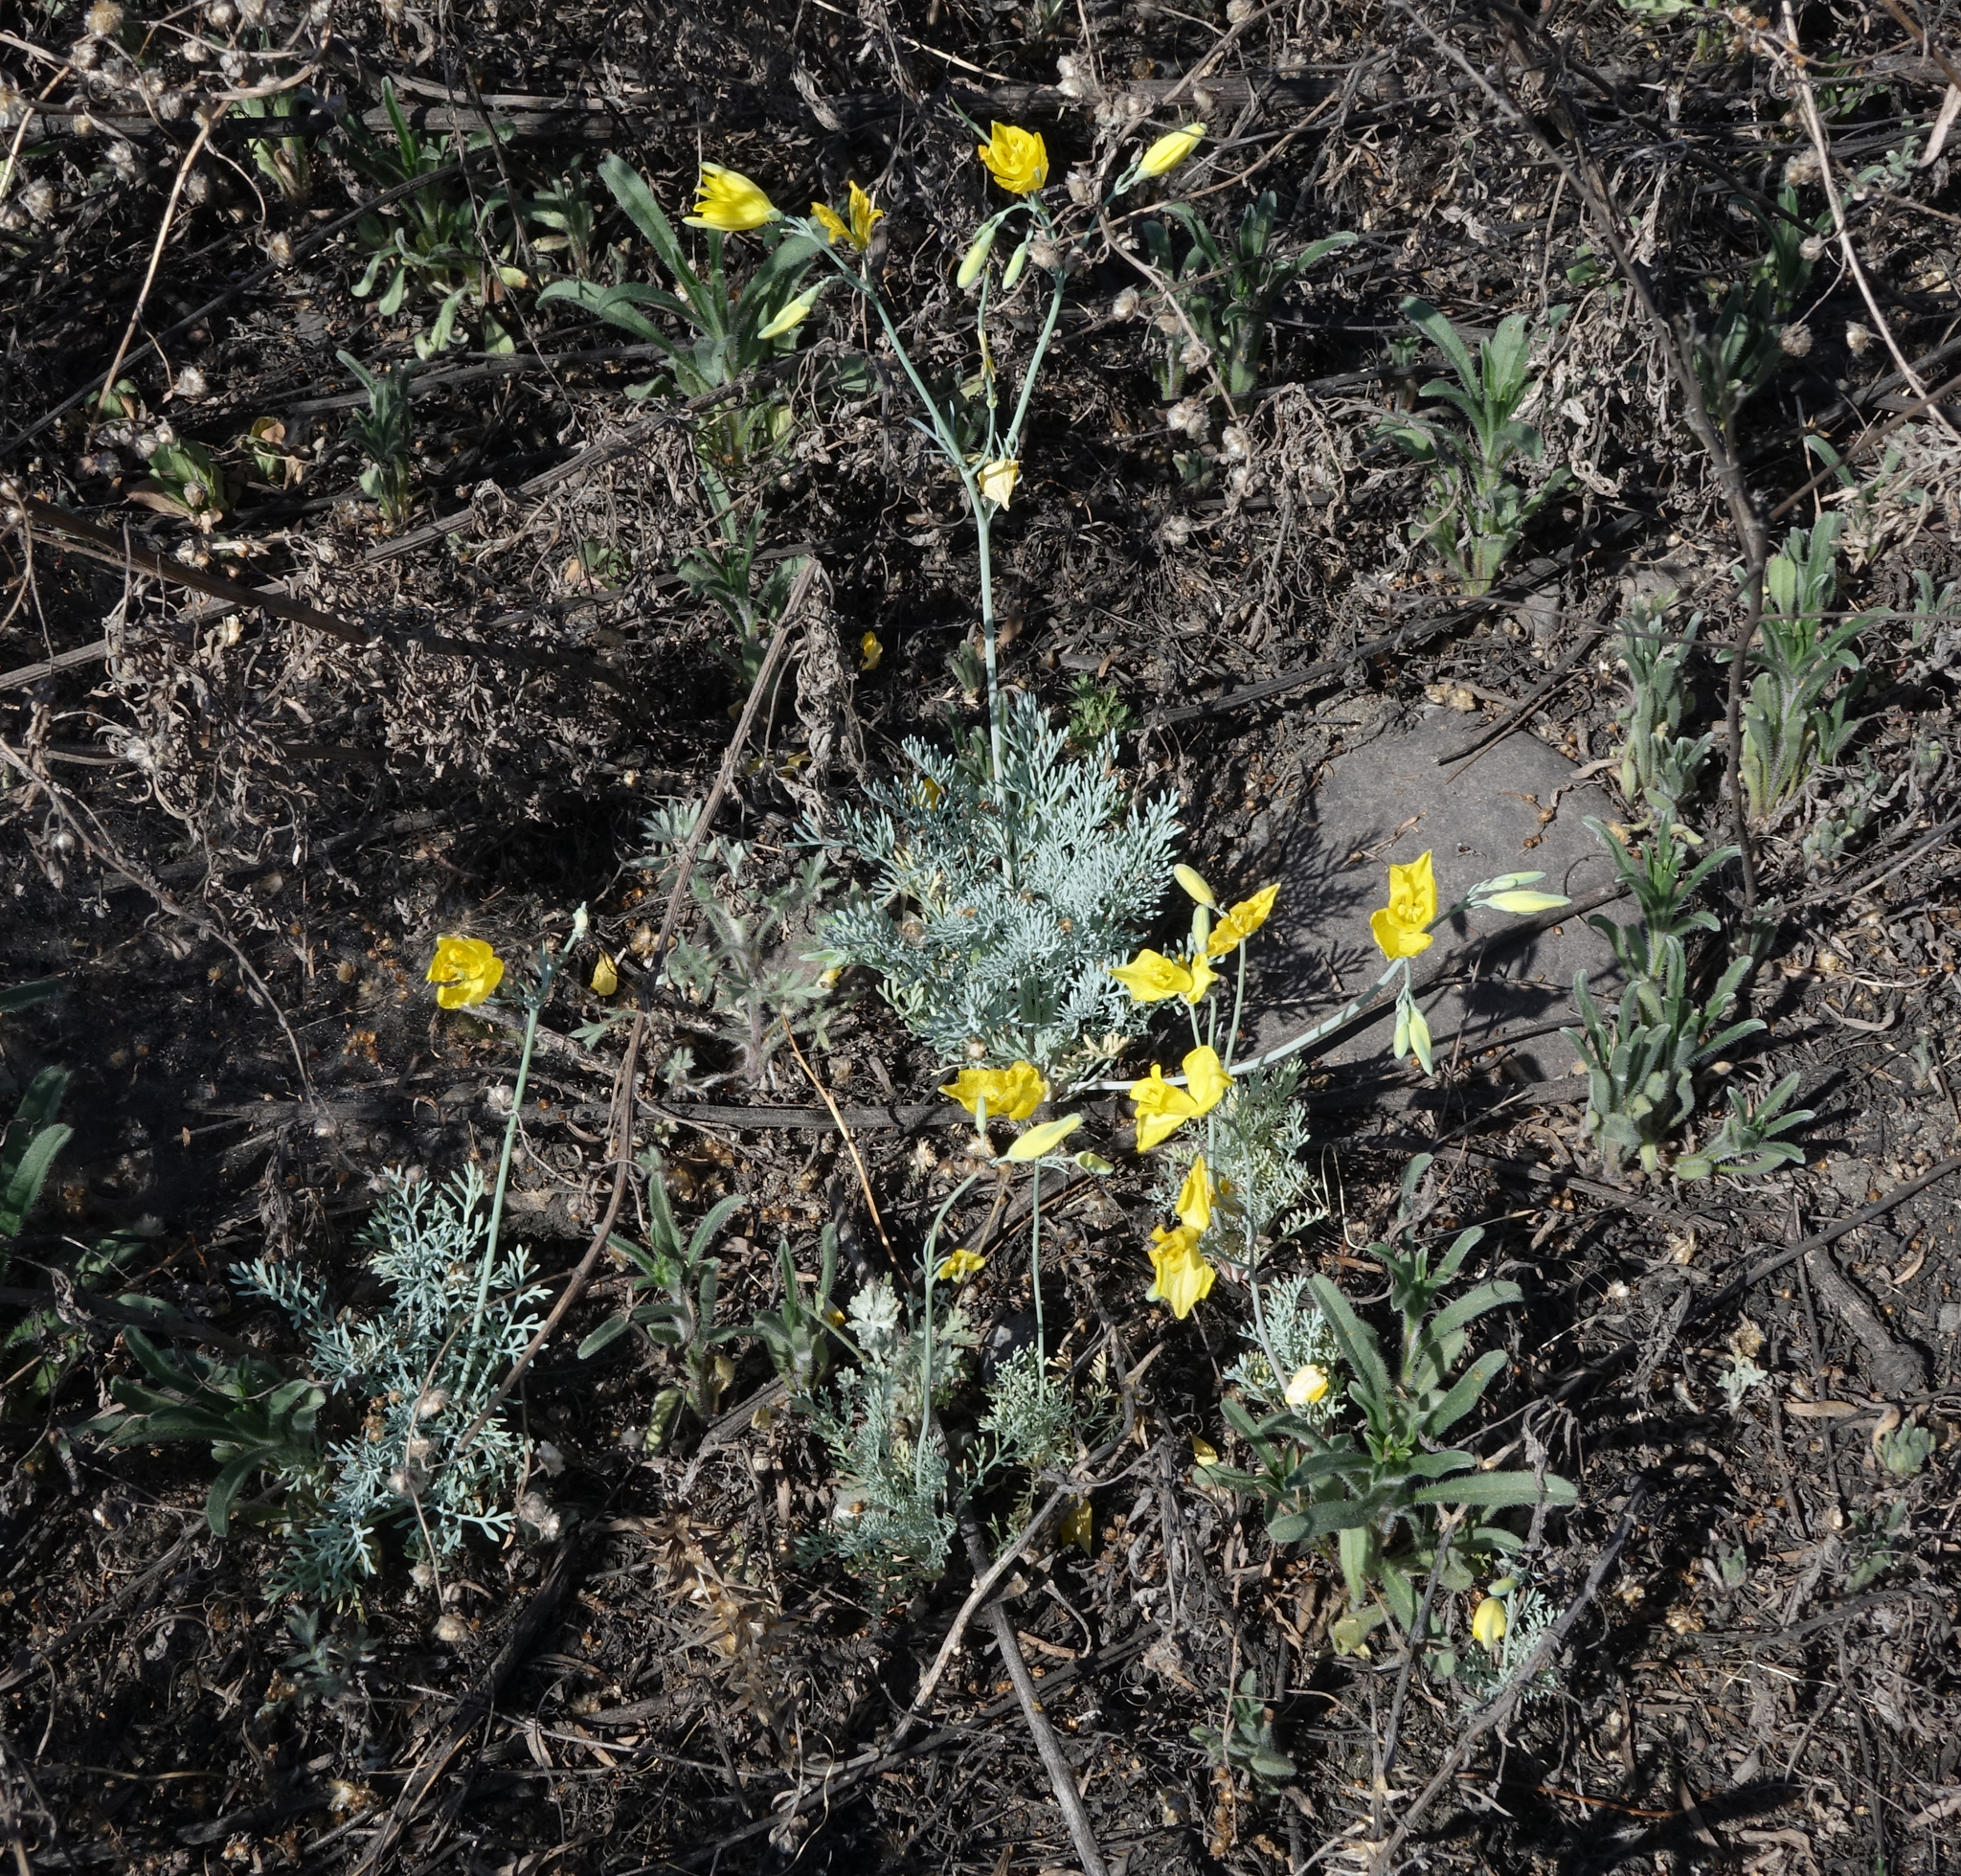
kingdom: Plantae
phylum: Tracheophyta
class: Magnoliopsida
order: Ranunculales
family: Papaveraceae
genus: Hypecoum
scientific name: Hypecoum erectum
